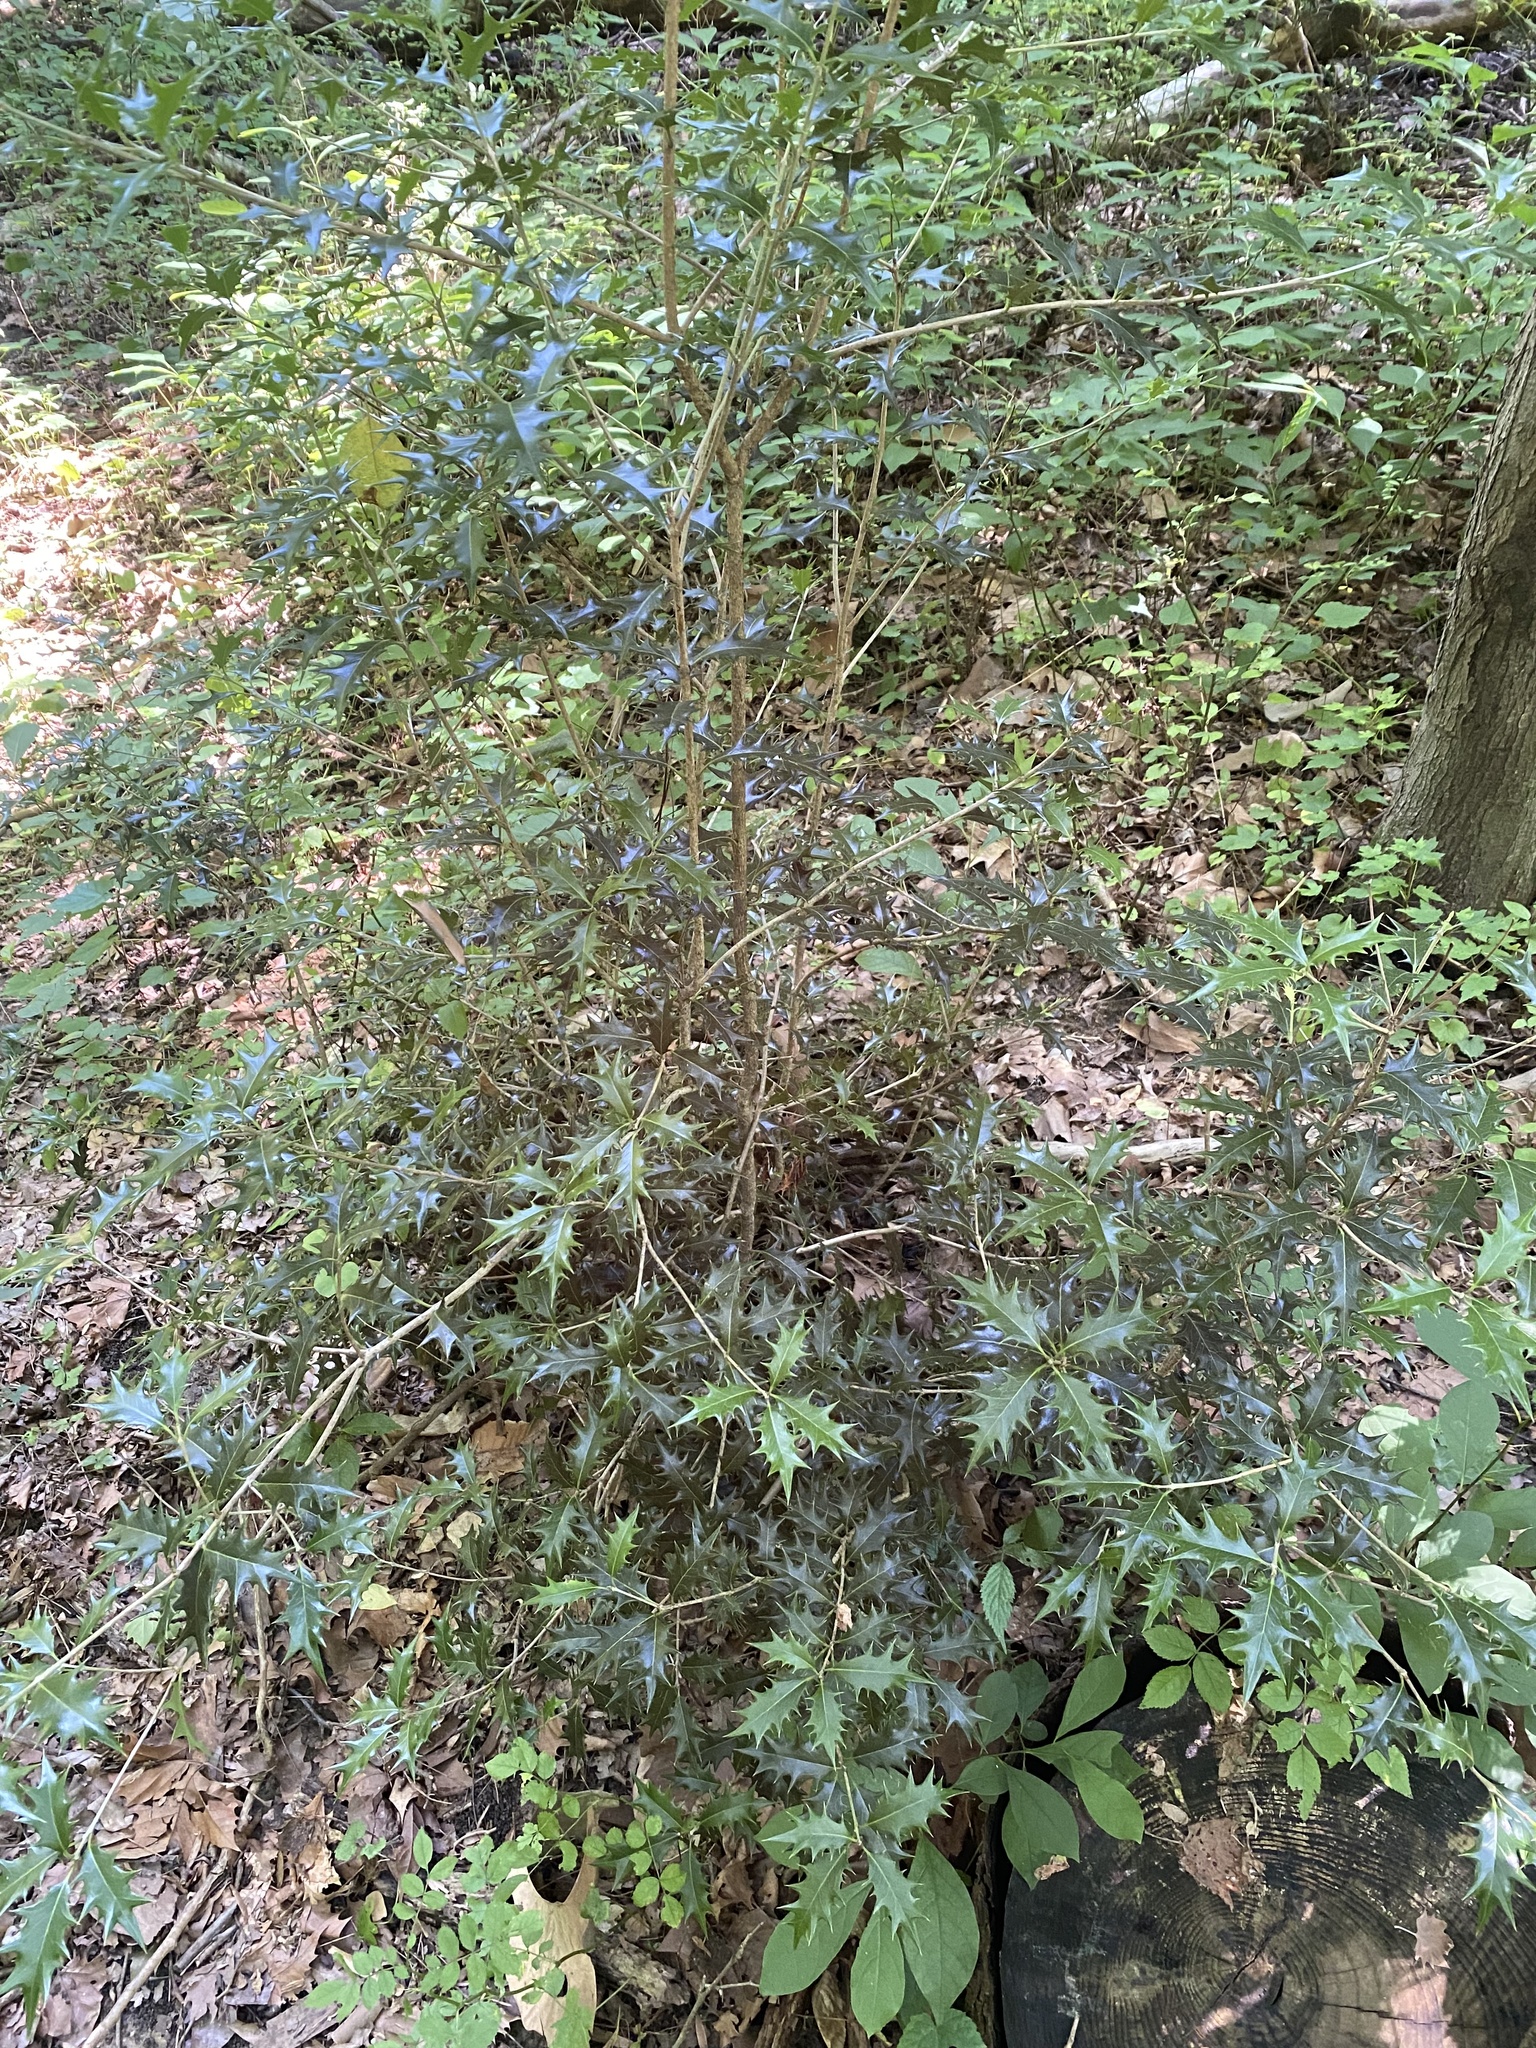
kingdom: Plantae
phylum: Tracheophyta
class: Magnoliopsida
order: Lamiales
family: Oleaceae
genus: Osmanthus
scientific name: Osmanthus heterophyllus
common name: Holly osmanthus
